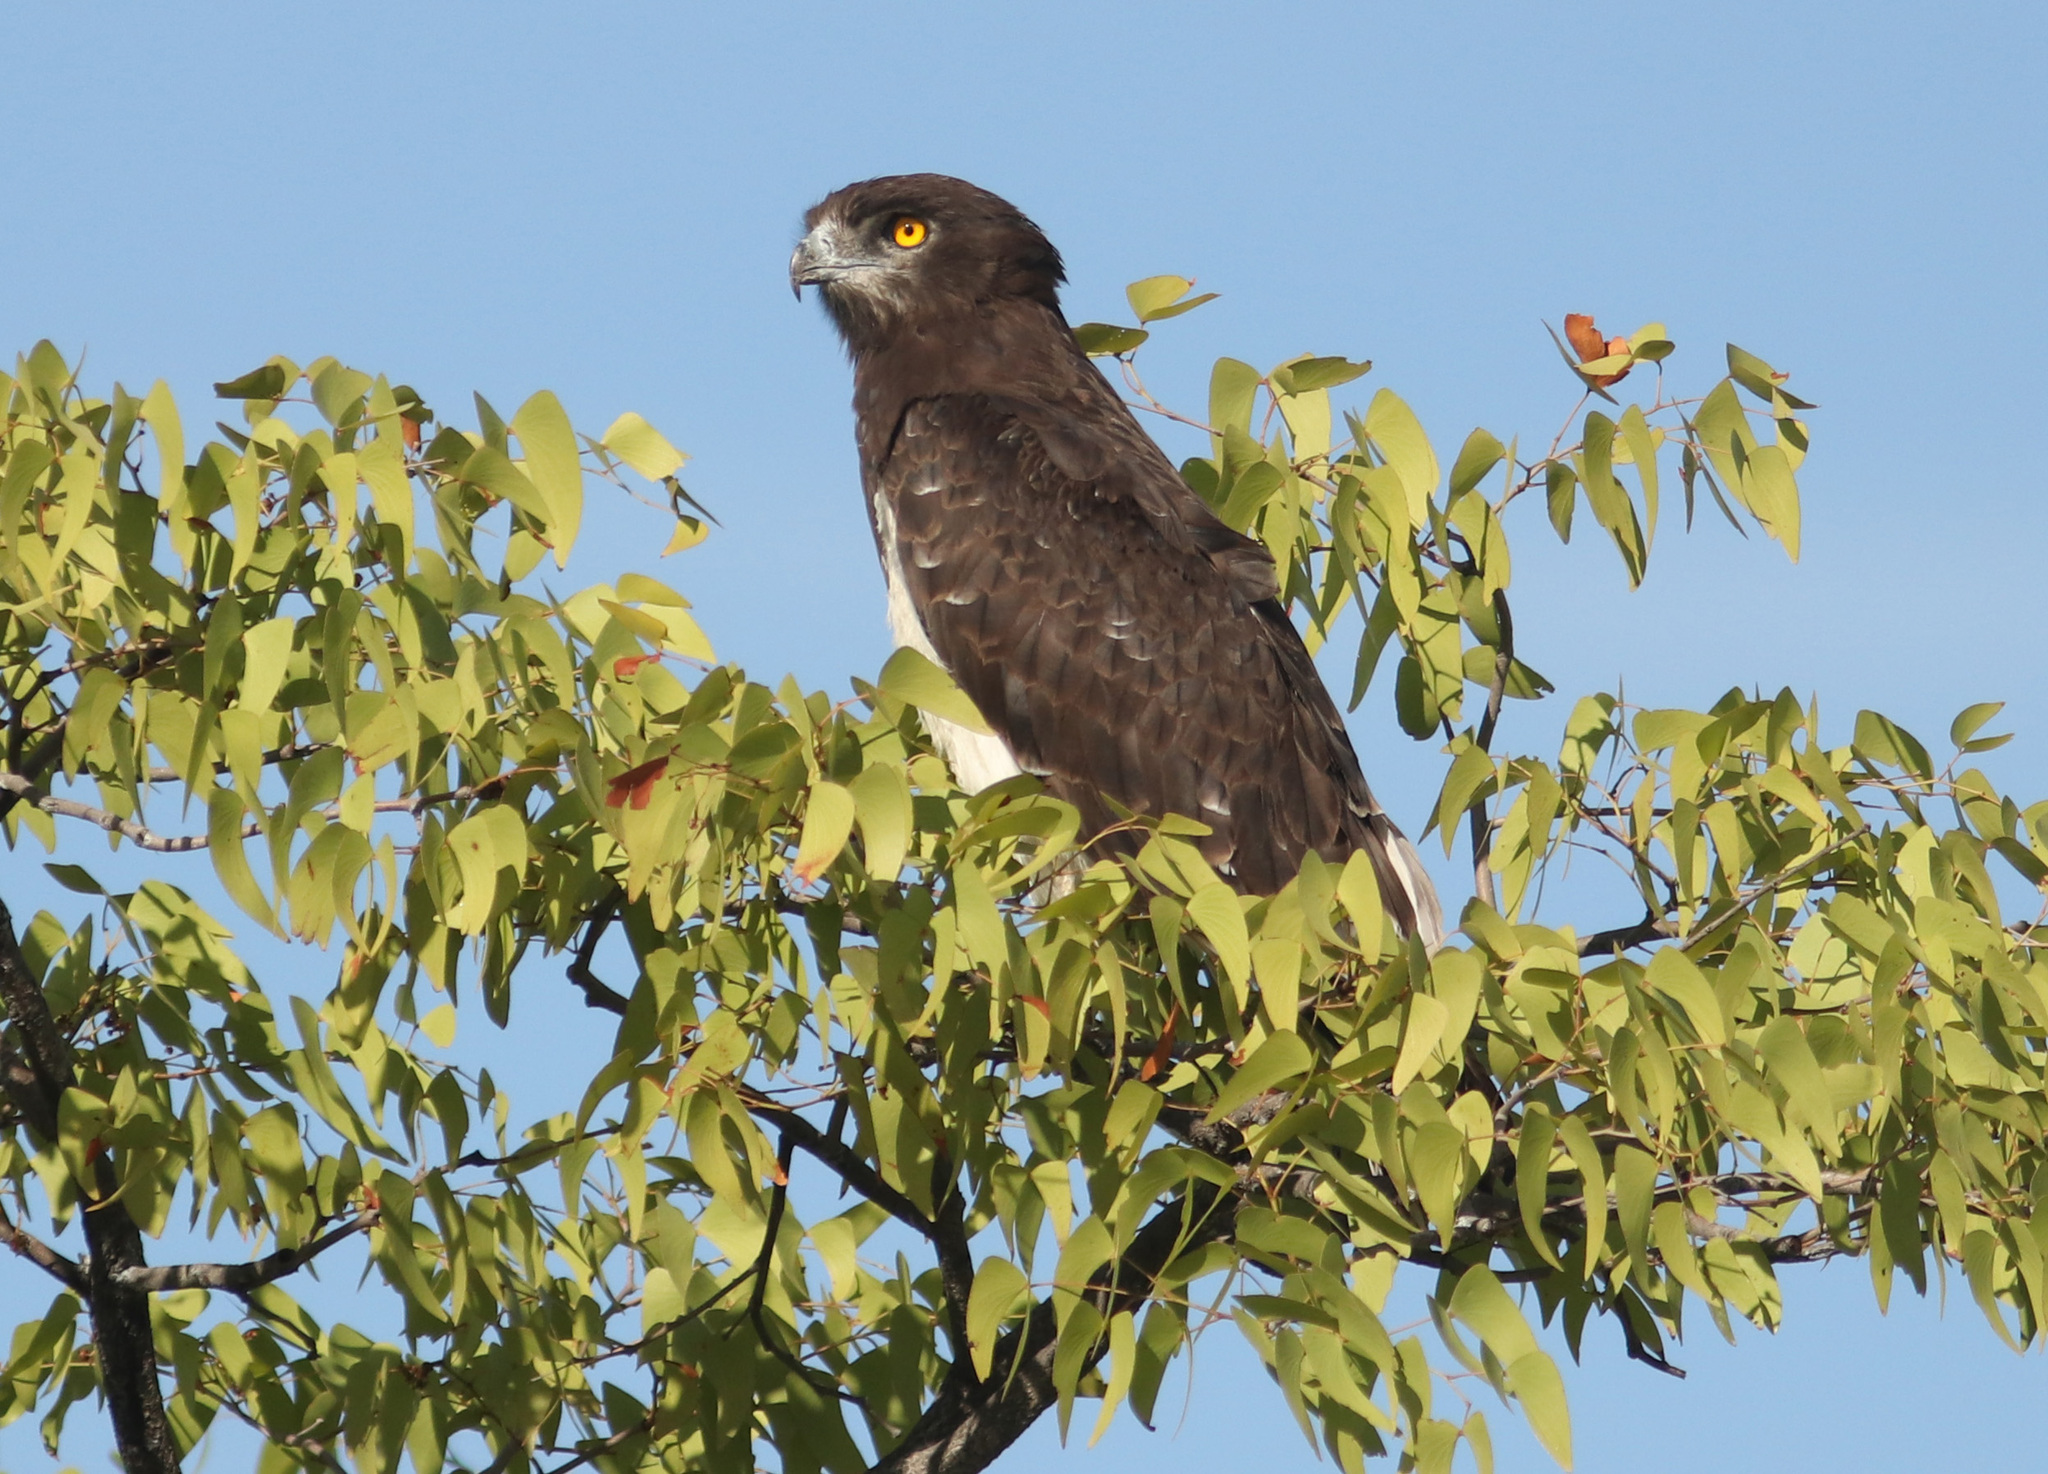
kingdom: Animalia
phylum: Chordata
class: Aves
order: Accipitriformes
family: Accipitridae
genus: Circaetus
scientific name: Circaetus pectoralis
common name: Black-chested snake eagle
